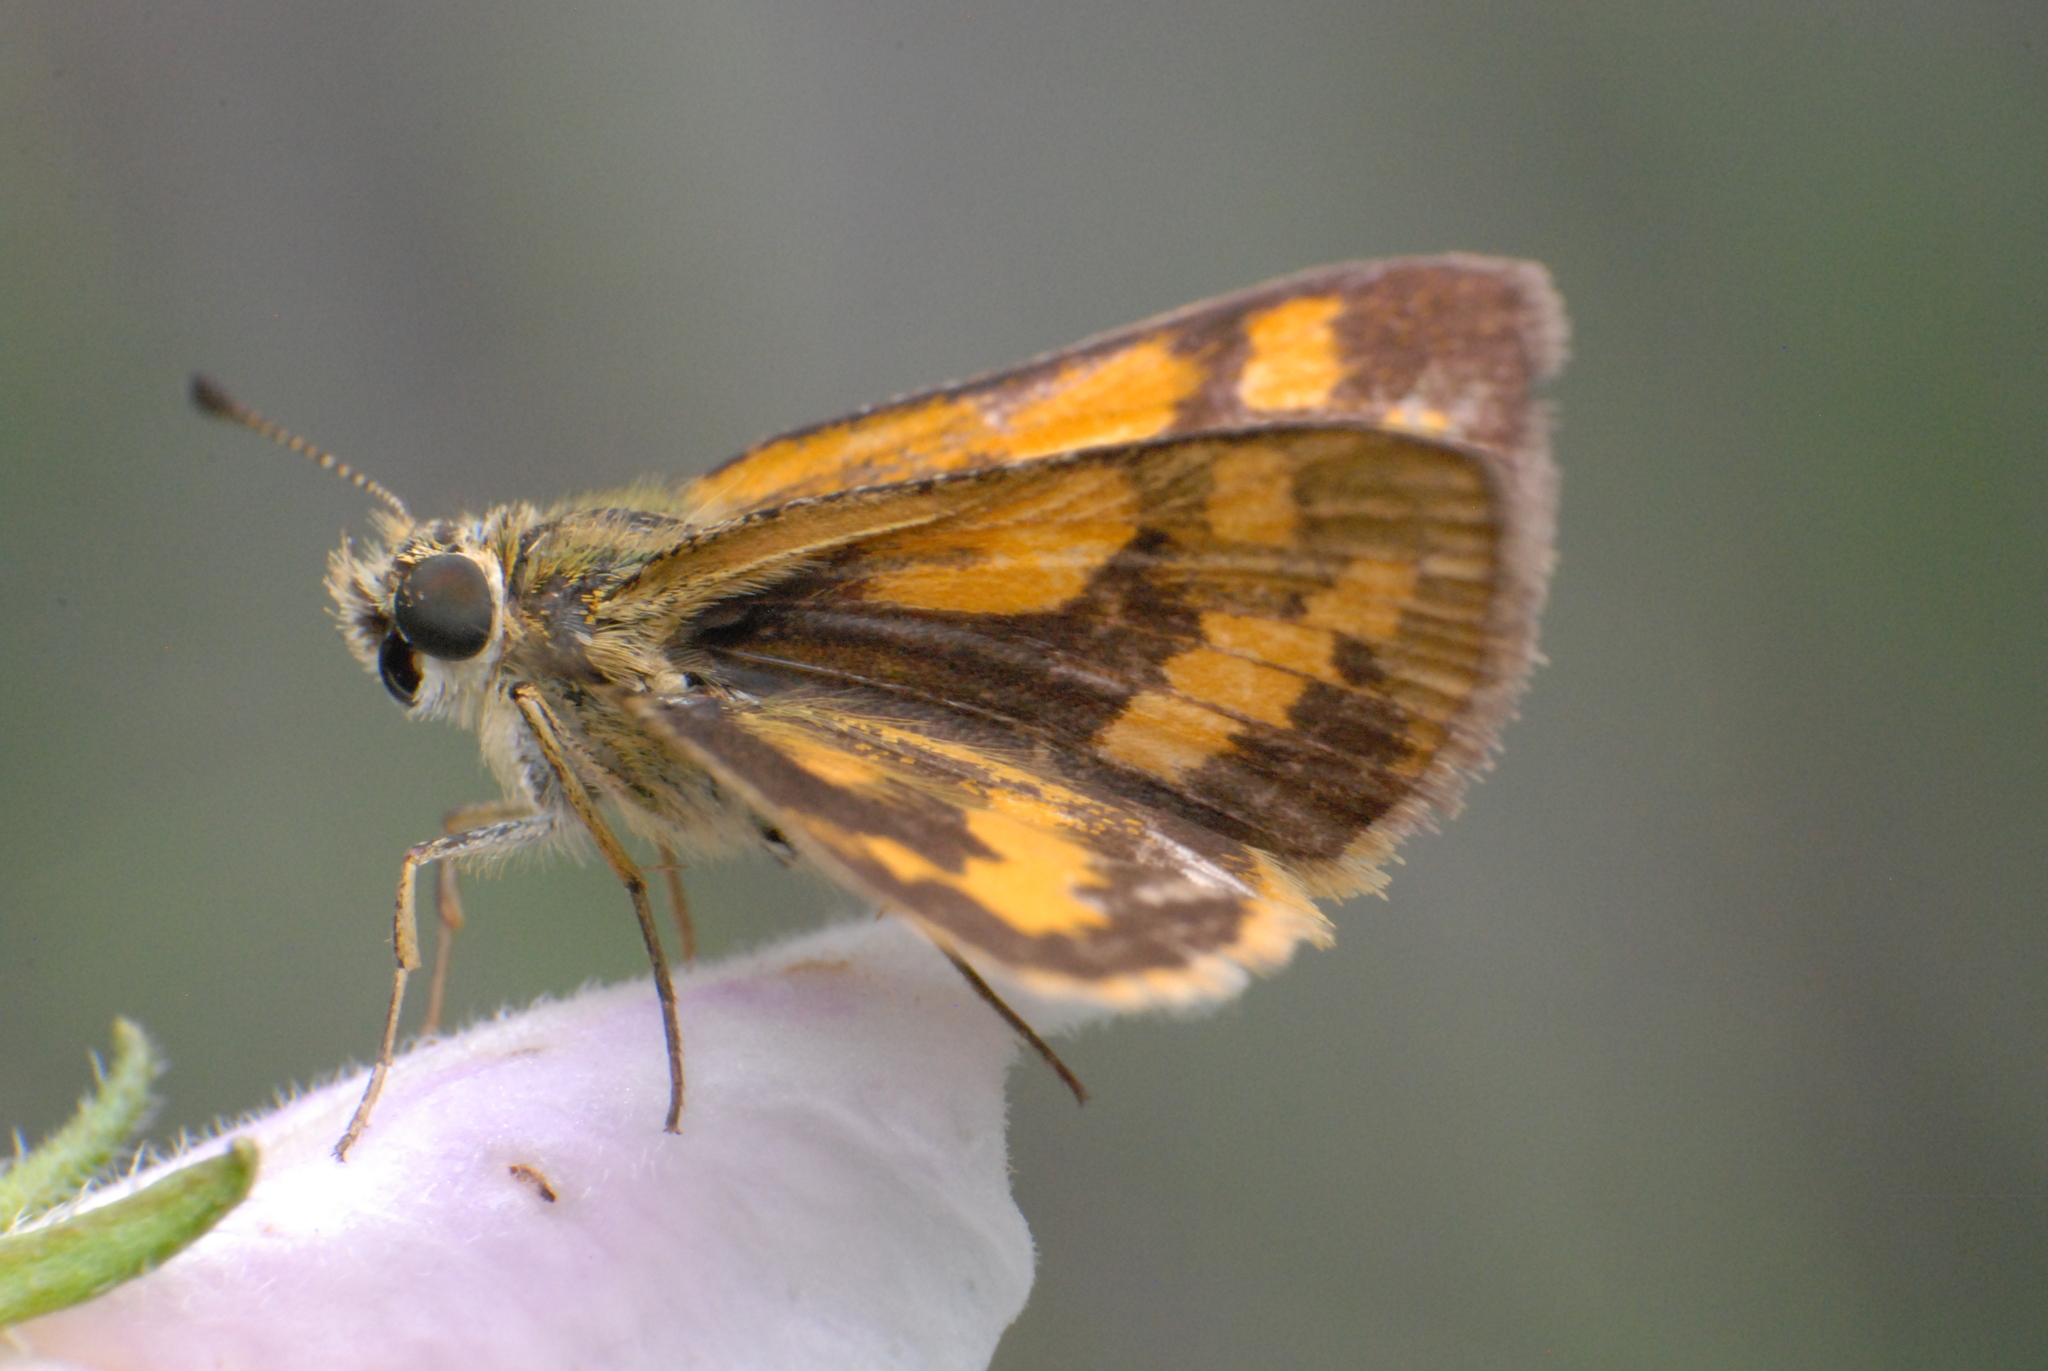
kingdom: Animalia
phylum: Arthropoda
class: Insecta
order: Lepidoptera
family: Hesperiidae
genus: Ocybadistes
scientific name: Ocybadistes walkeri
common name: Yellow-banded dart
